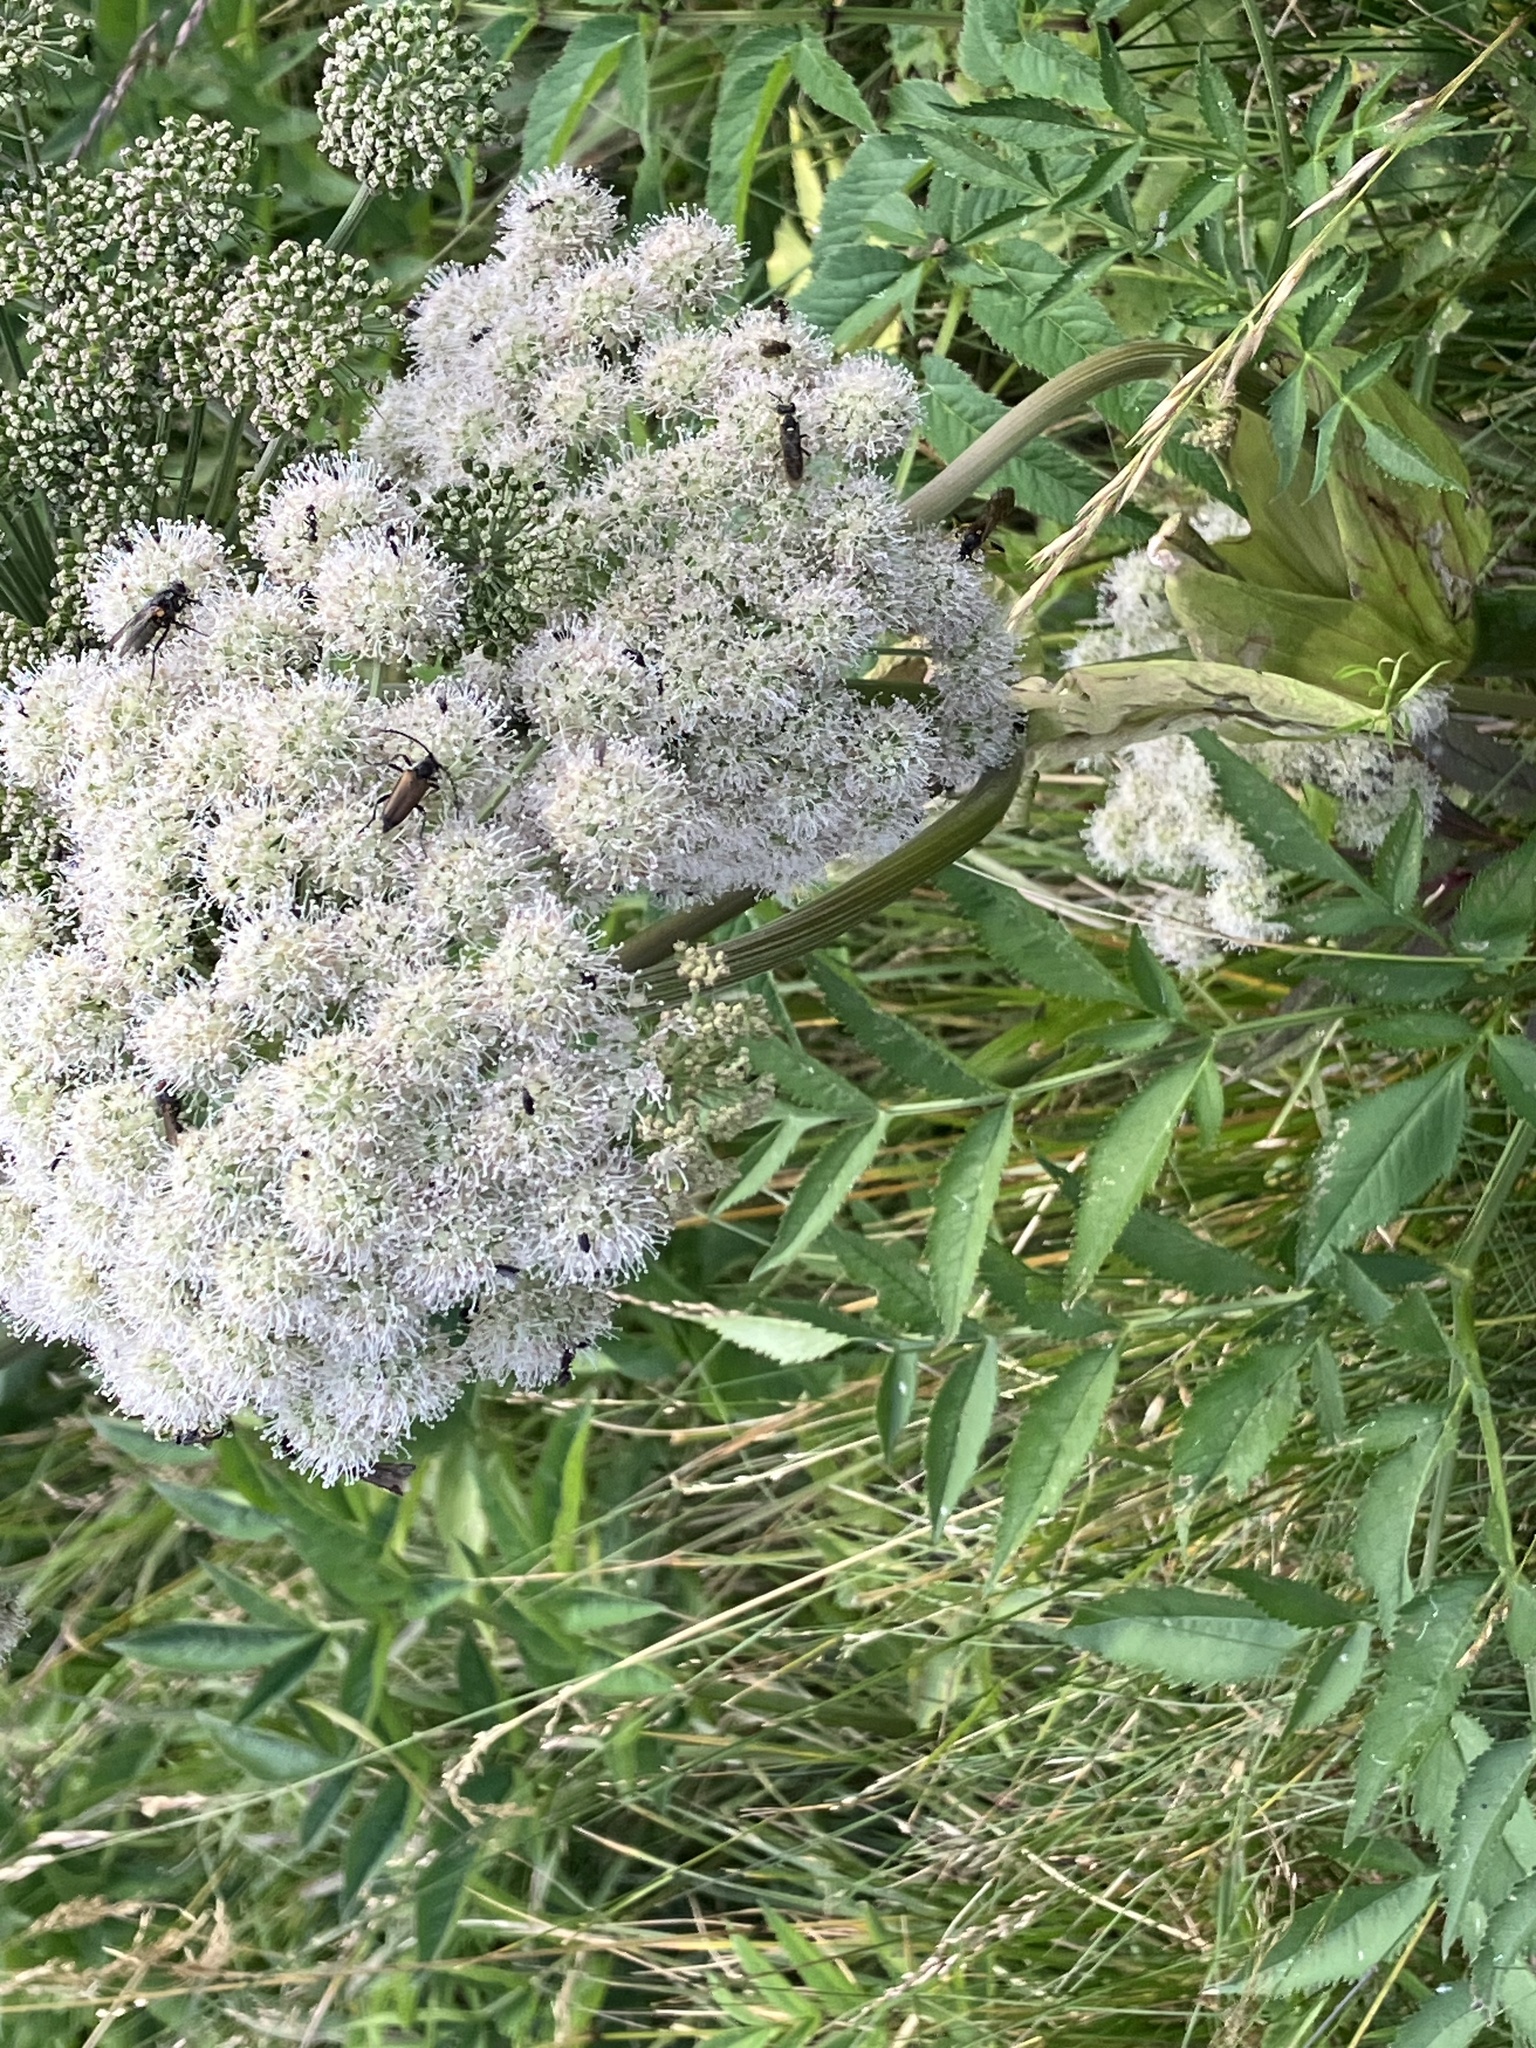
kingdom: Plantae
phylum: Tracheophyta
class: Magnoliopsida
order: Apiales
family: Apiaceae
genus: Angelica
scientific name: Angelica sylvestris
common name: Wild angelica
